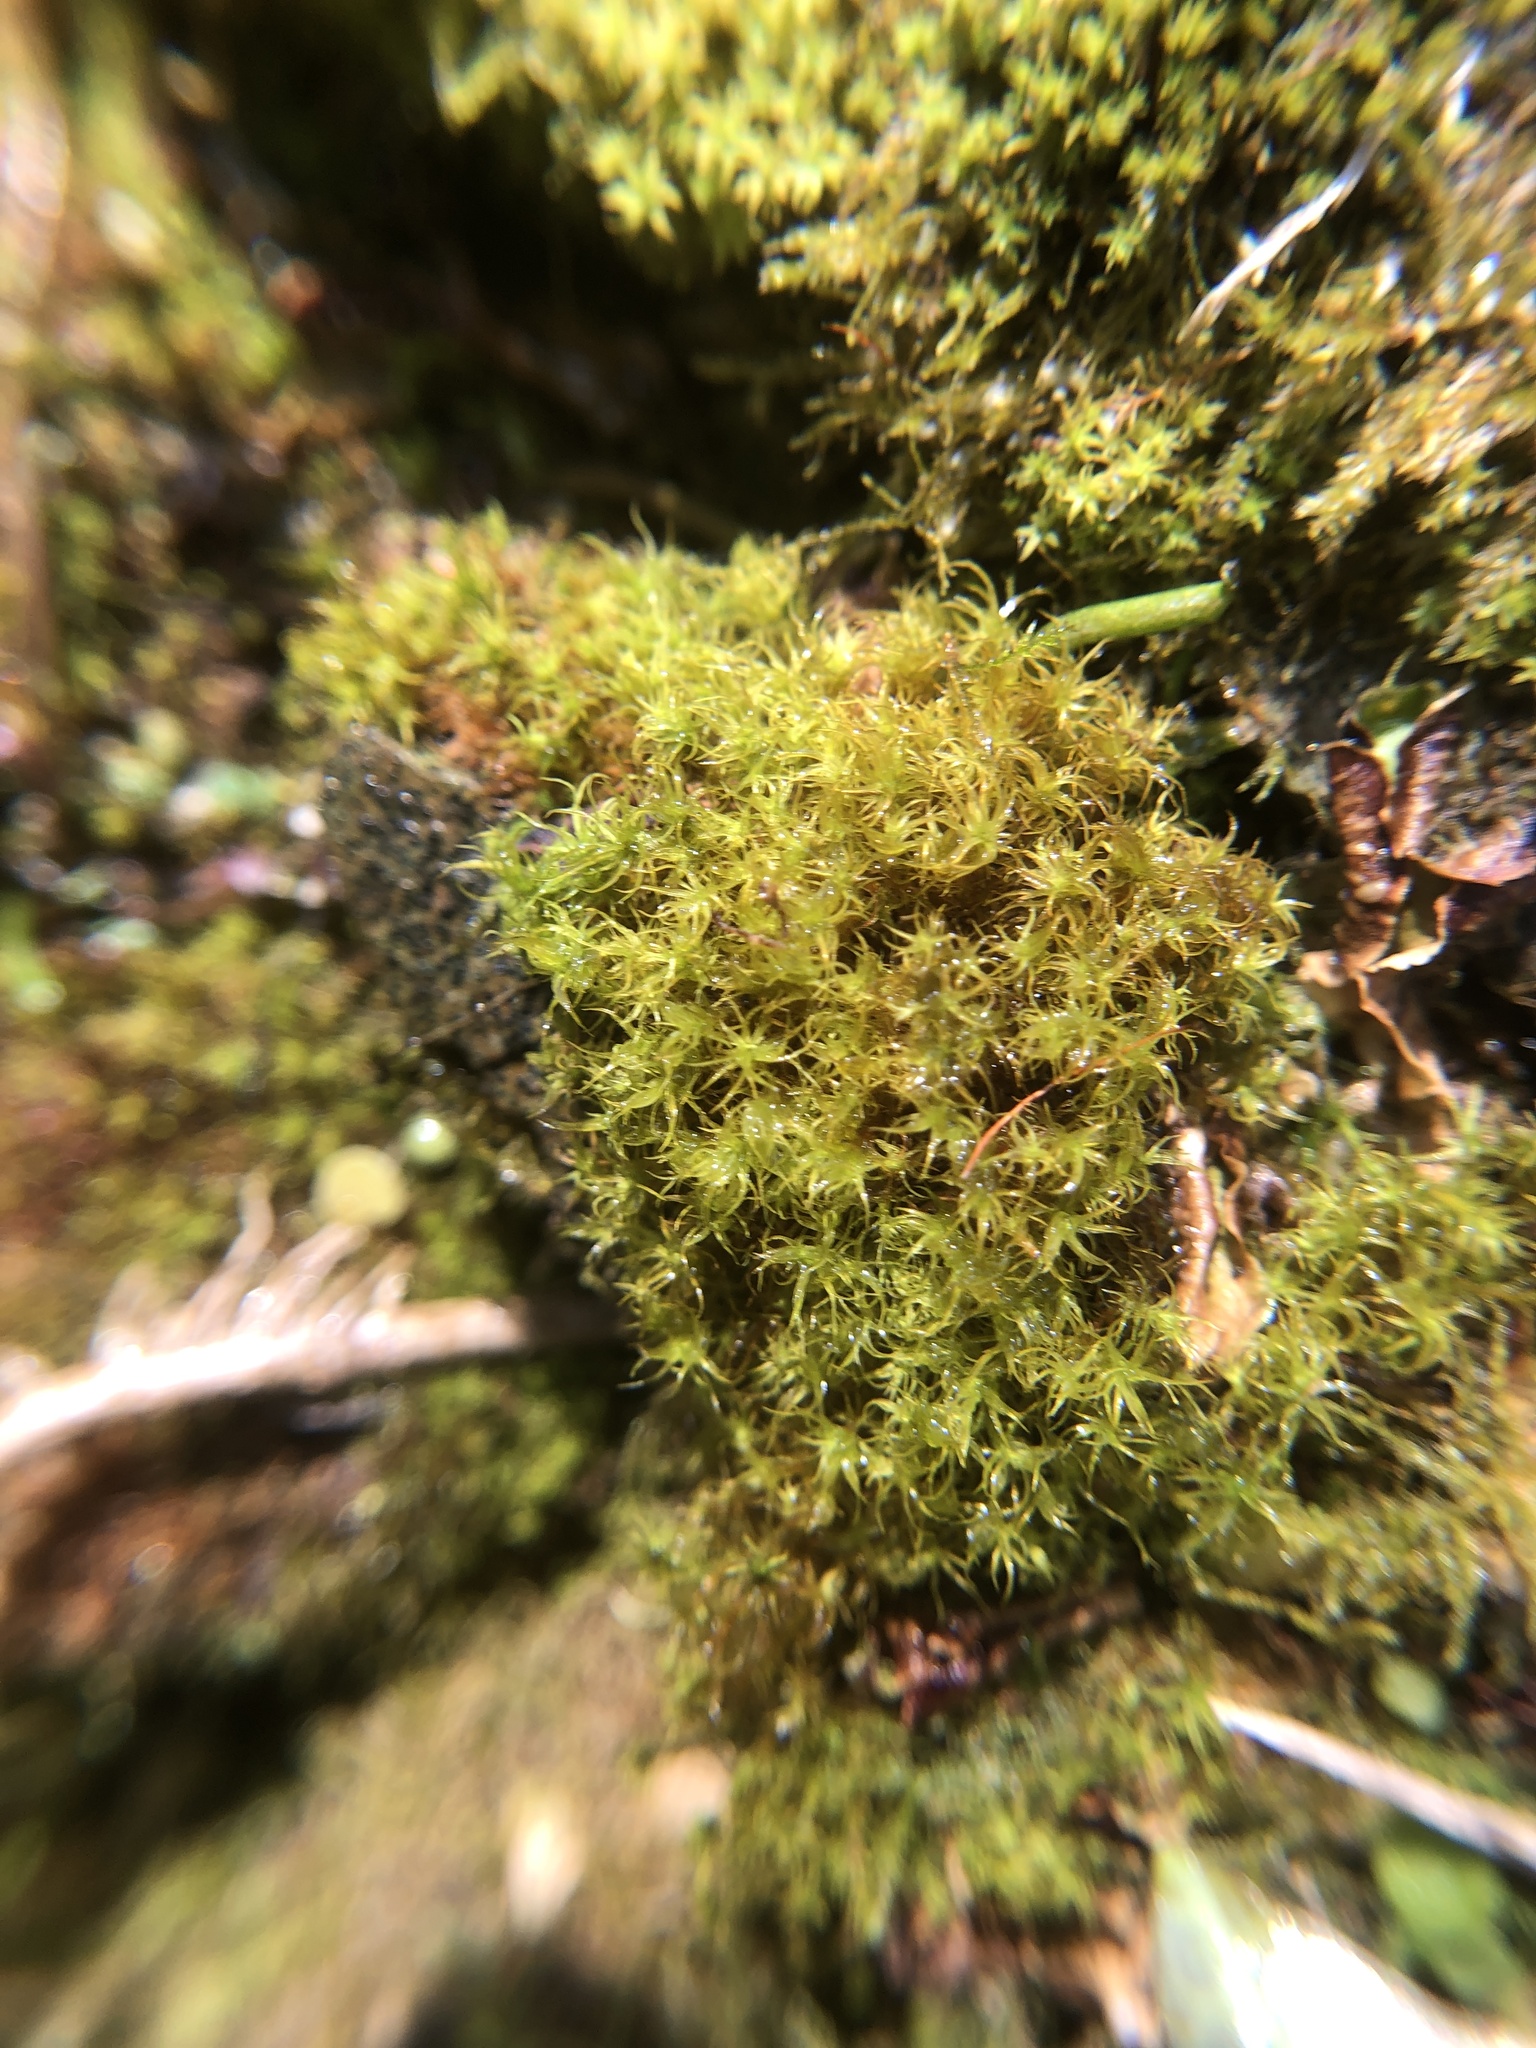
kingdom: Plantae
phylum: Bryophyta
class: Bryopsida
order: Pottiales
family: Pottiaceae
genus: Vinealobryum
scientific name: Vinealobryum insulanum
